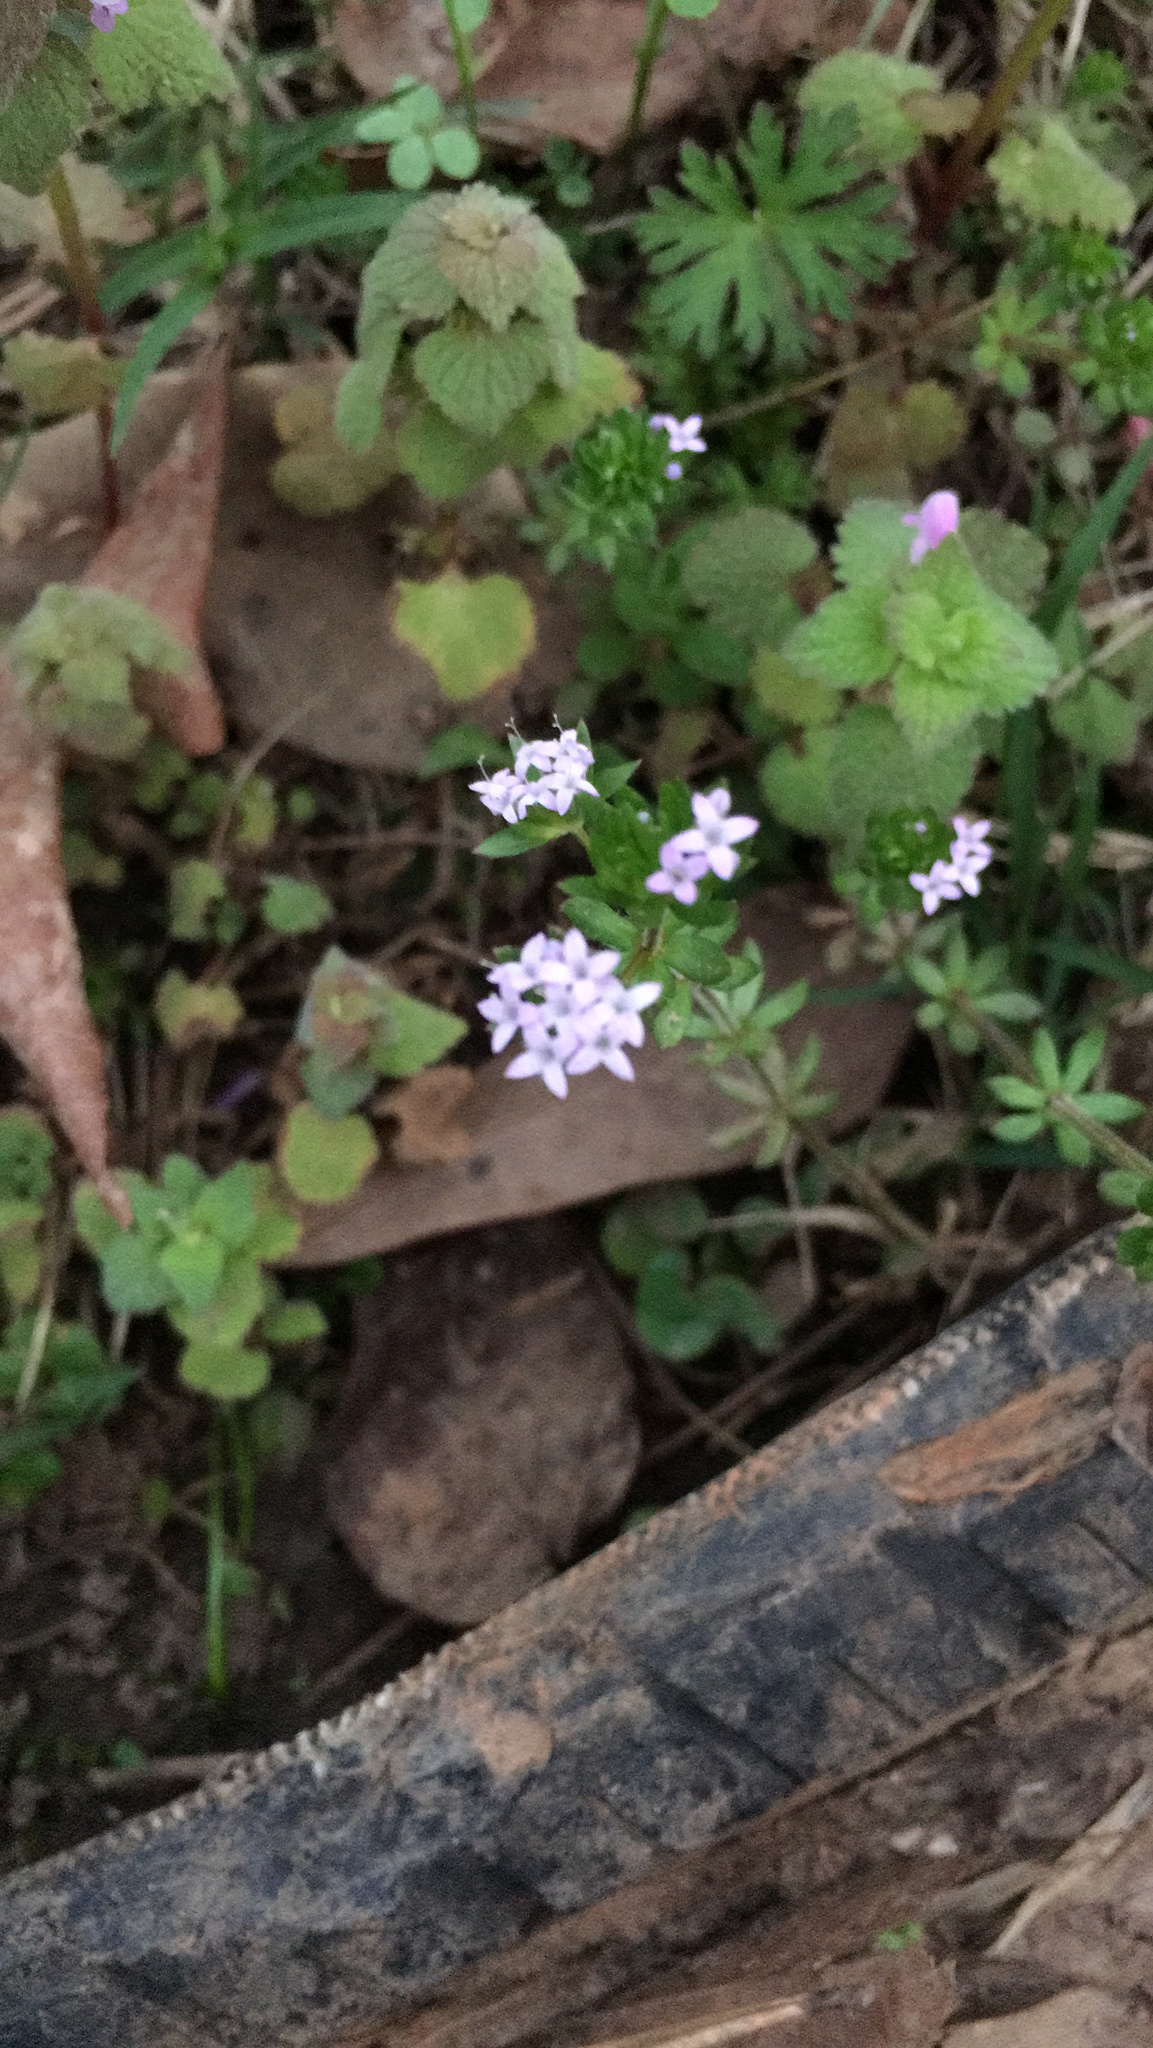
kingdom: Plantae
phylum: Tracheophyta
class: Magnoliopsida
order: Gentianales
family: Rubiaceae
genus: Sherardia
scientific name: Sherardia arvensis
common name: Field madder
